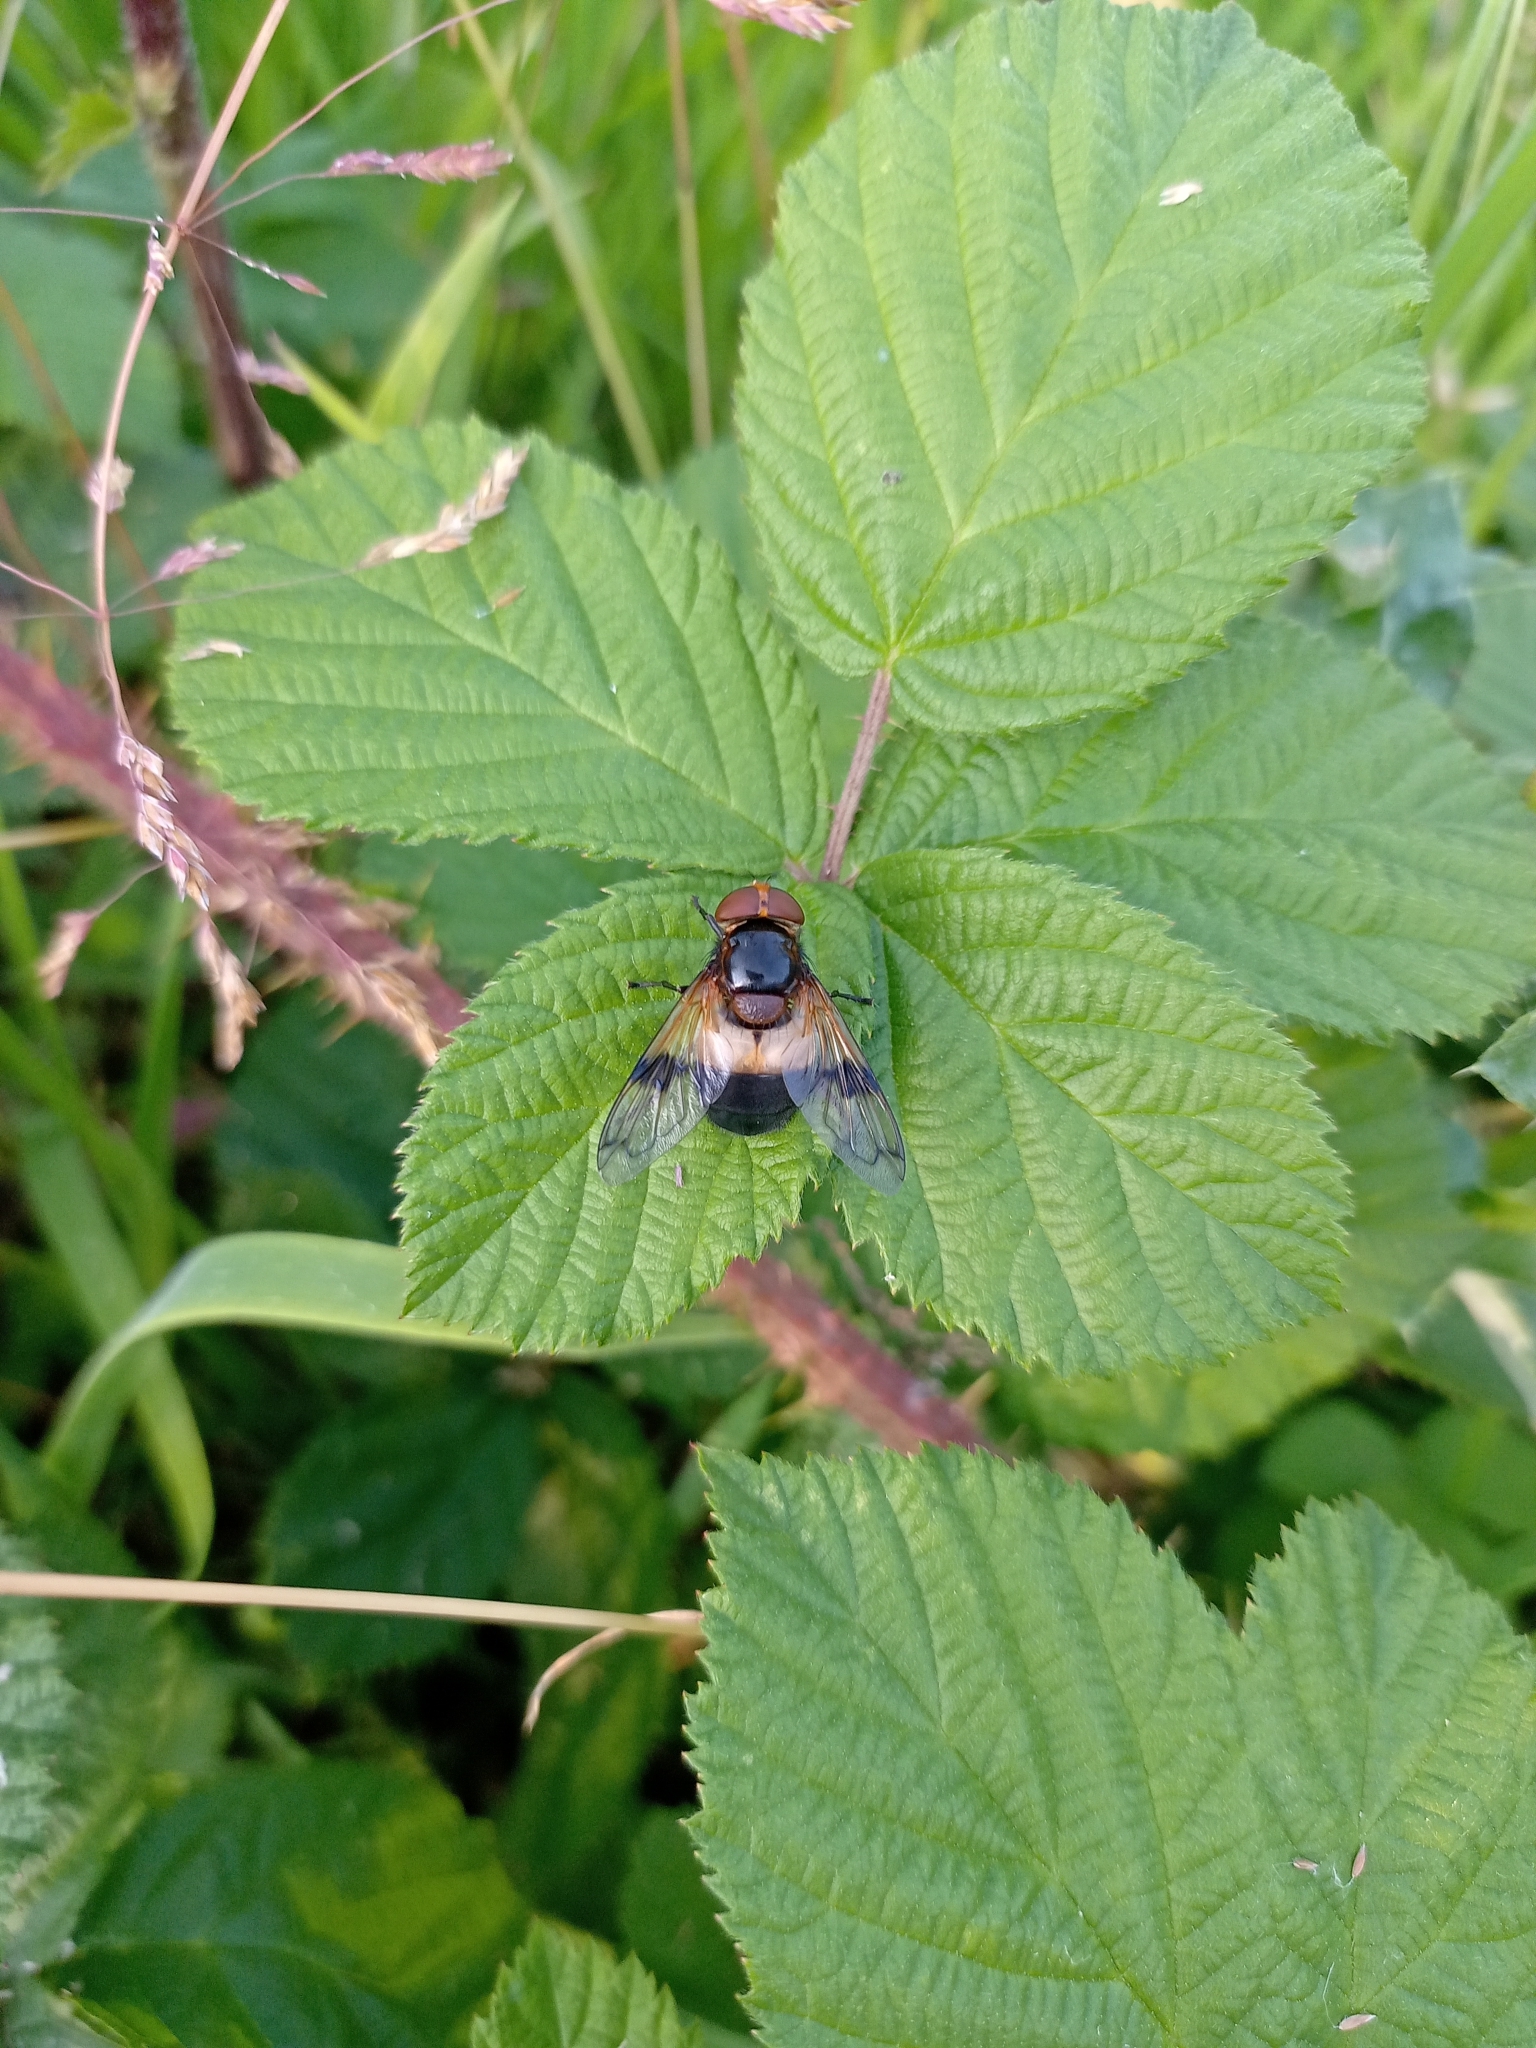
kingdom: Animalia
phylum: Arthropoda
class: Insecta
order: Diptera
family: Syrphidae
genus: Volucella
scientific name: Volucella pellucens
